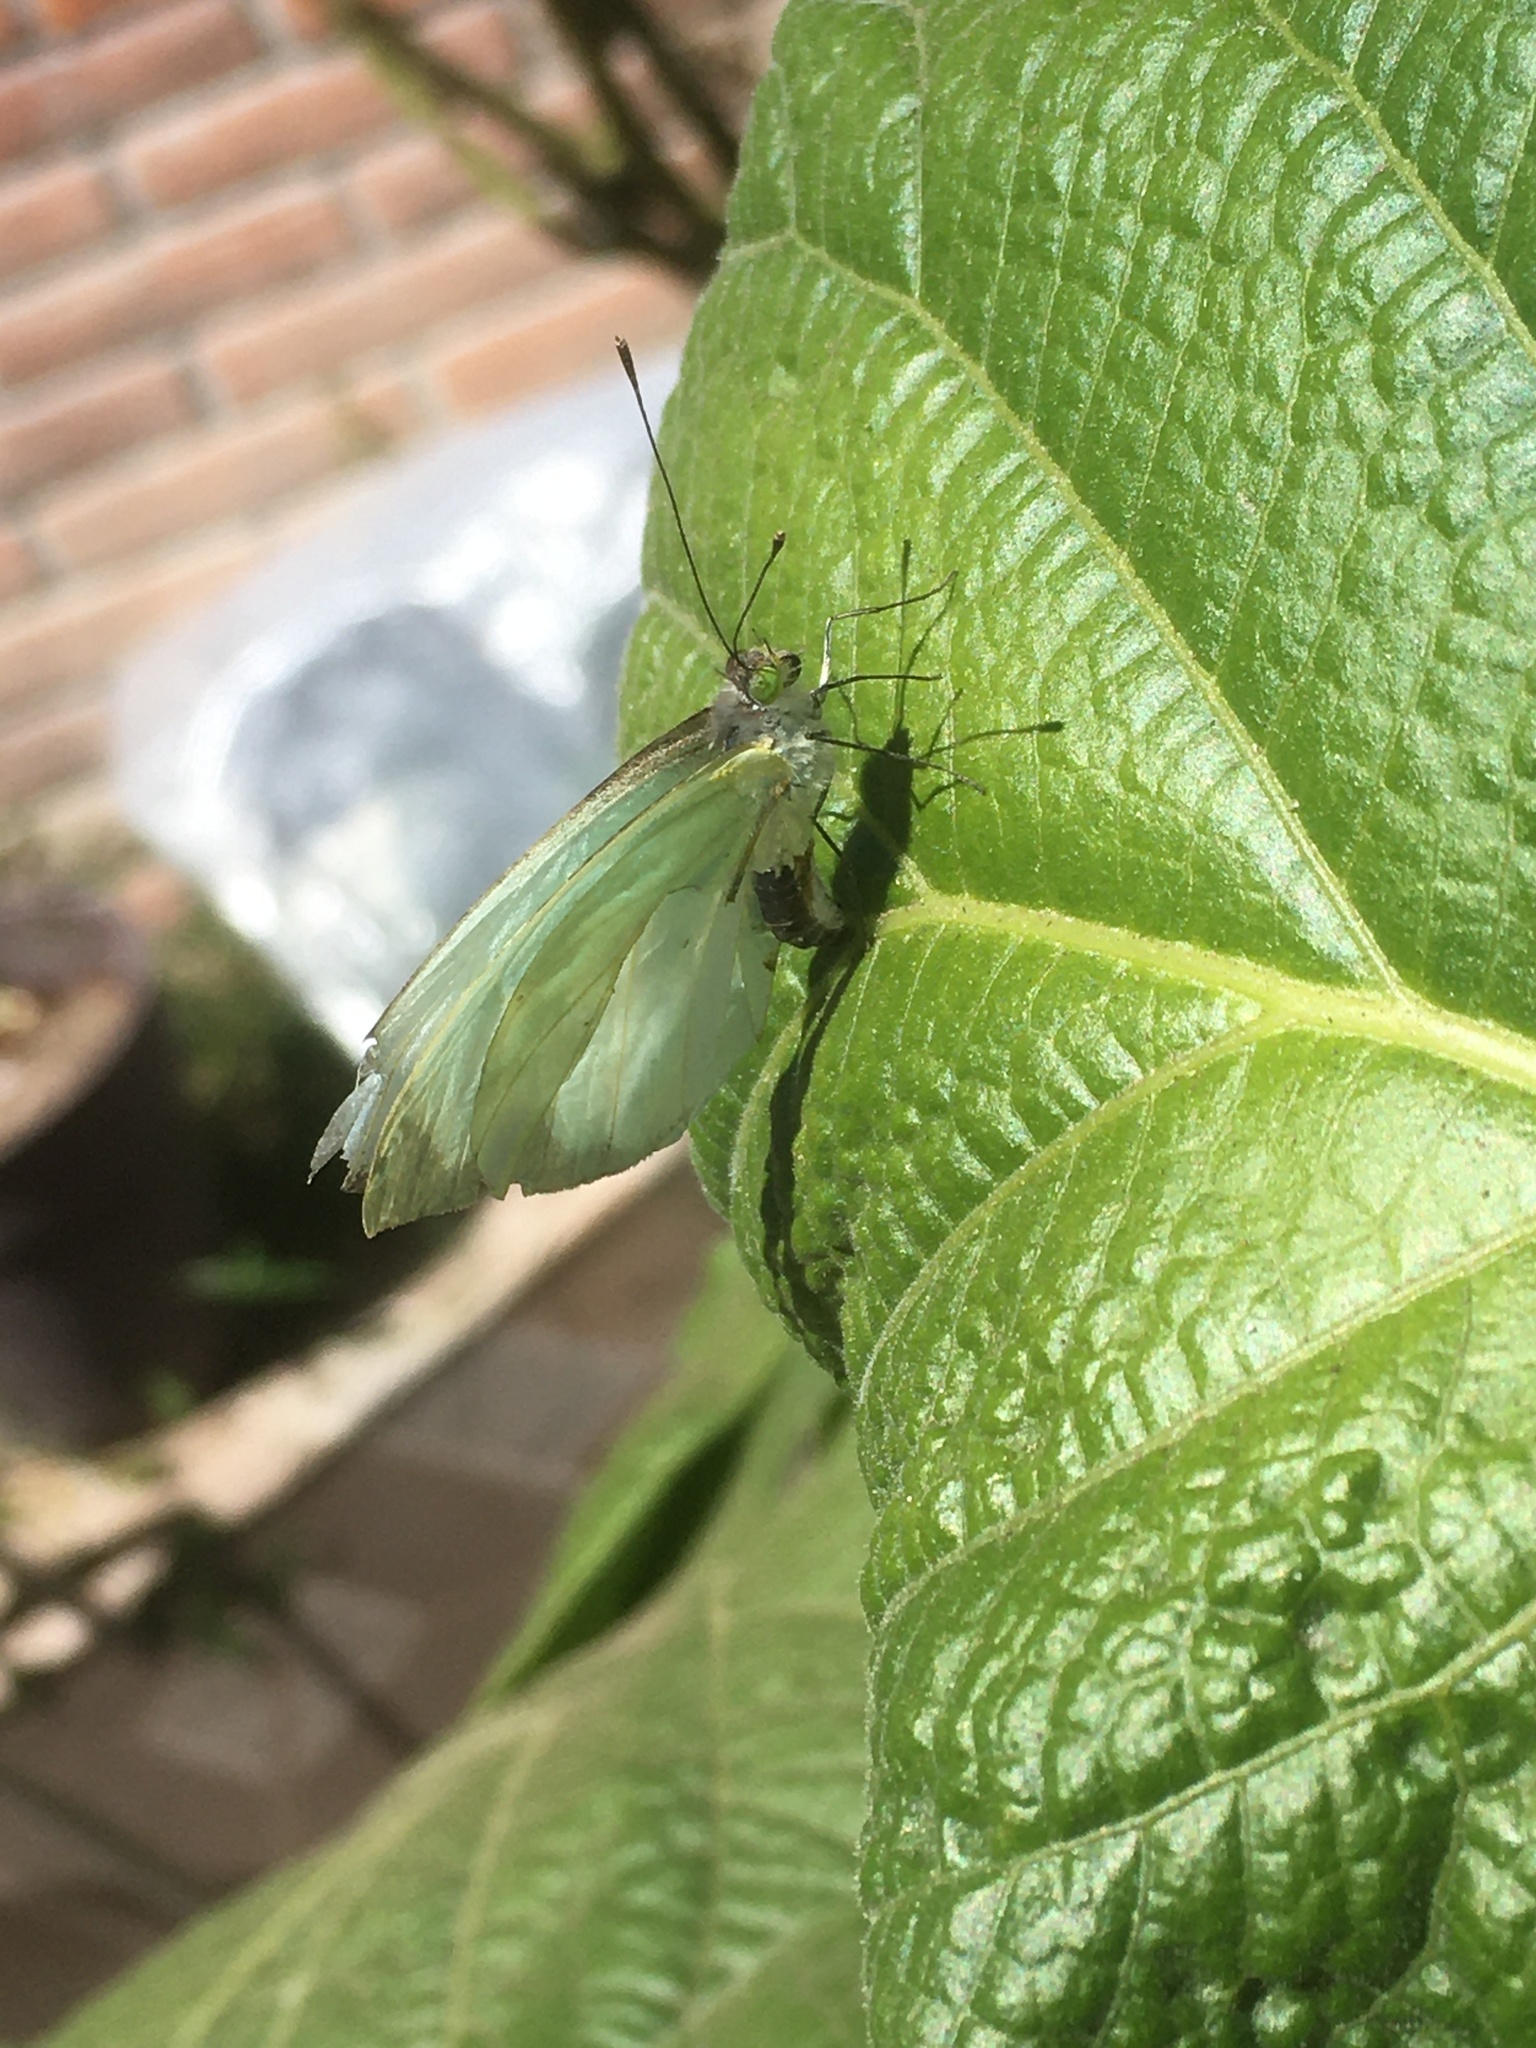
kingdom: Animalia
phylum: Arthropoda
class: Insecta
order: Lepidoptera
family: Pieridae
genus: Leptophobia
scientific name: Leptophobia aripa
